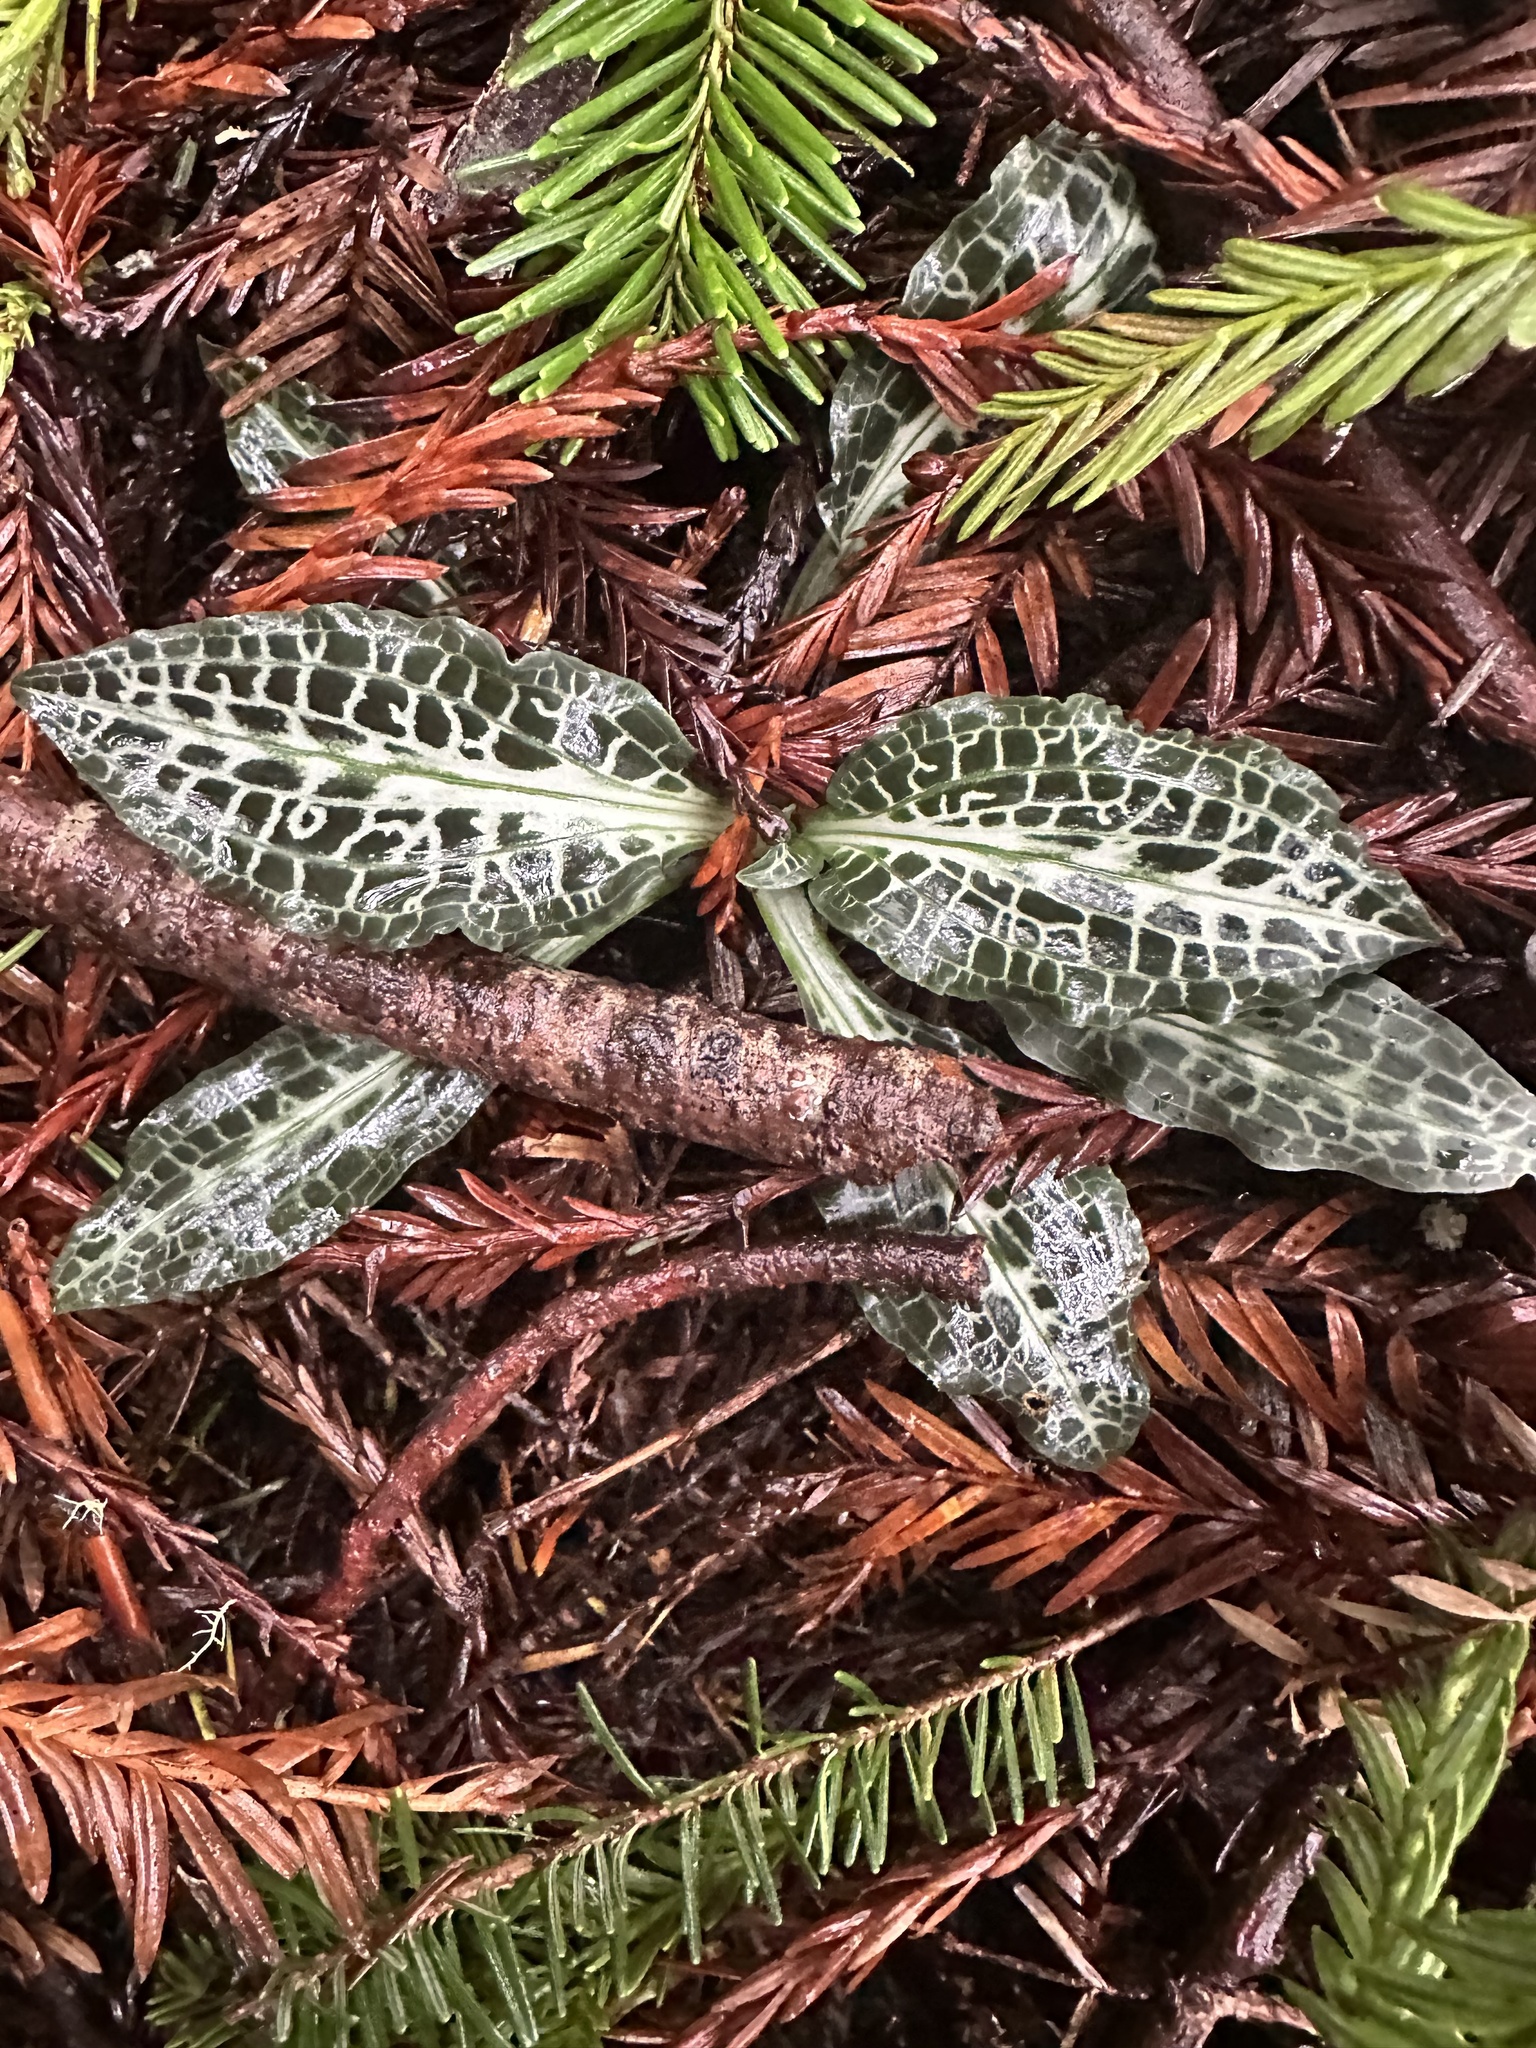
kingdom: Plantae
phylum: Tracheophyta
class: Liliopsida
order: Asparagales
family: Orchidaceae
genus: Goodyera
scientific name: Goodyera oblongifolia
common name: Giant rattlesnake-plantain
